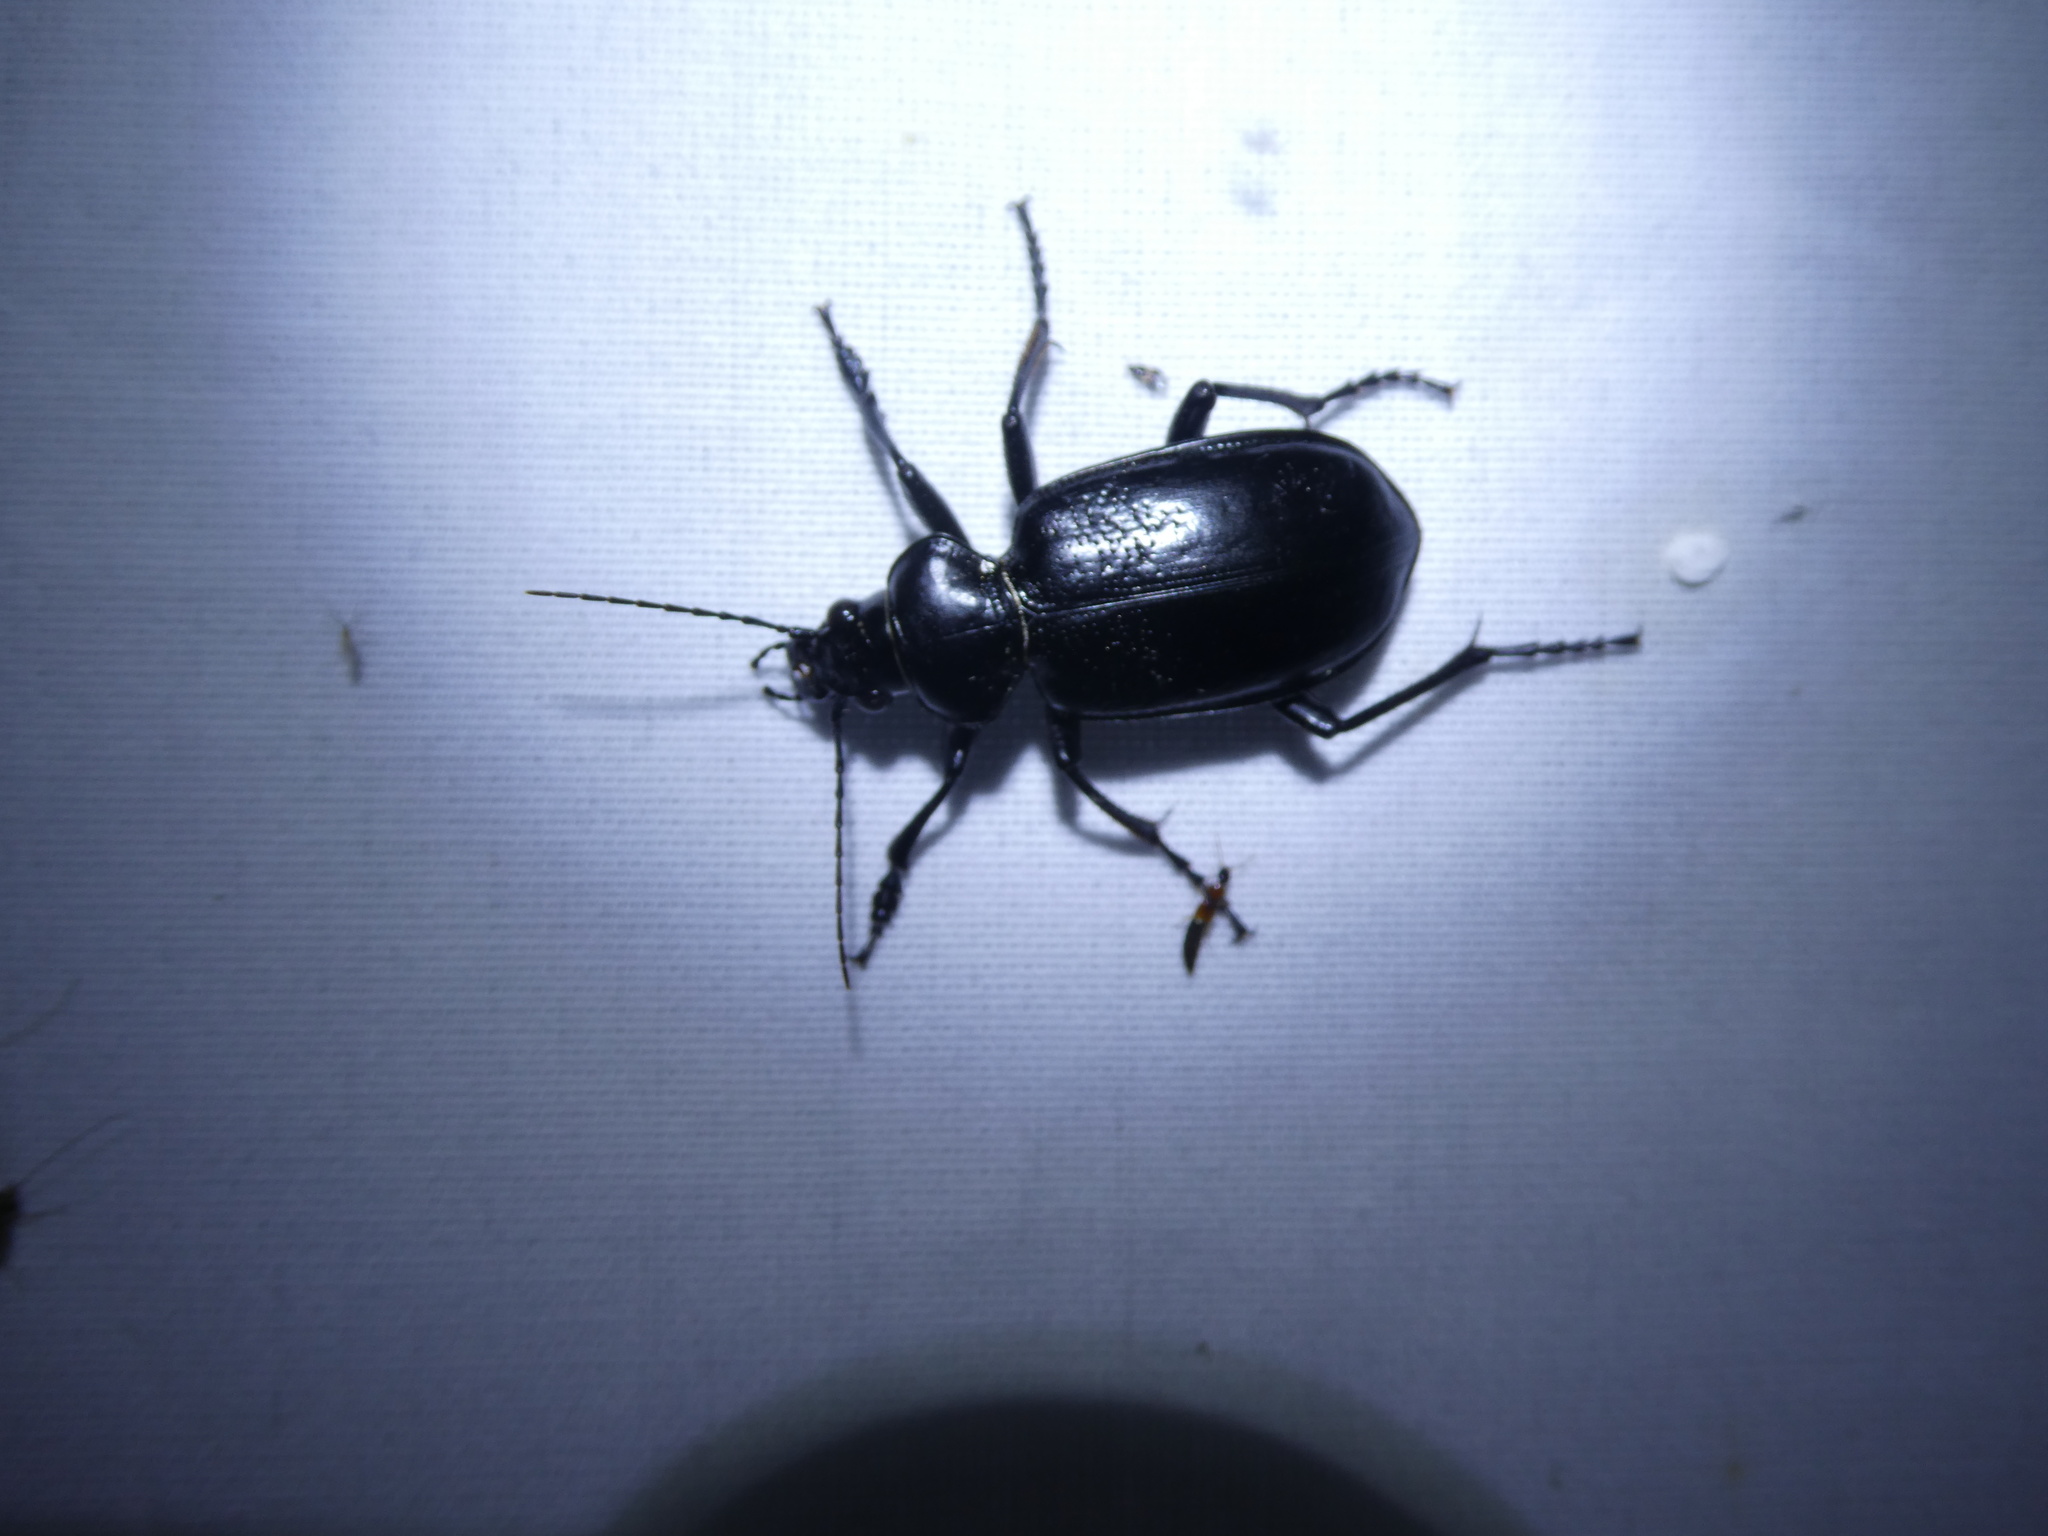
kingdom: Animalia
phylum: Arthropoda
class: Insecta
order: Coleoptera
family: Carabidae
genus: Calosoma
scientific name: Calosoma
